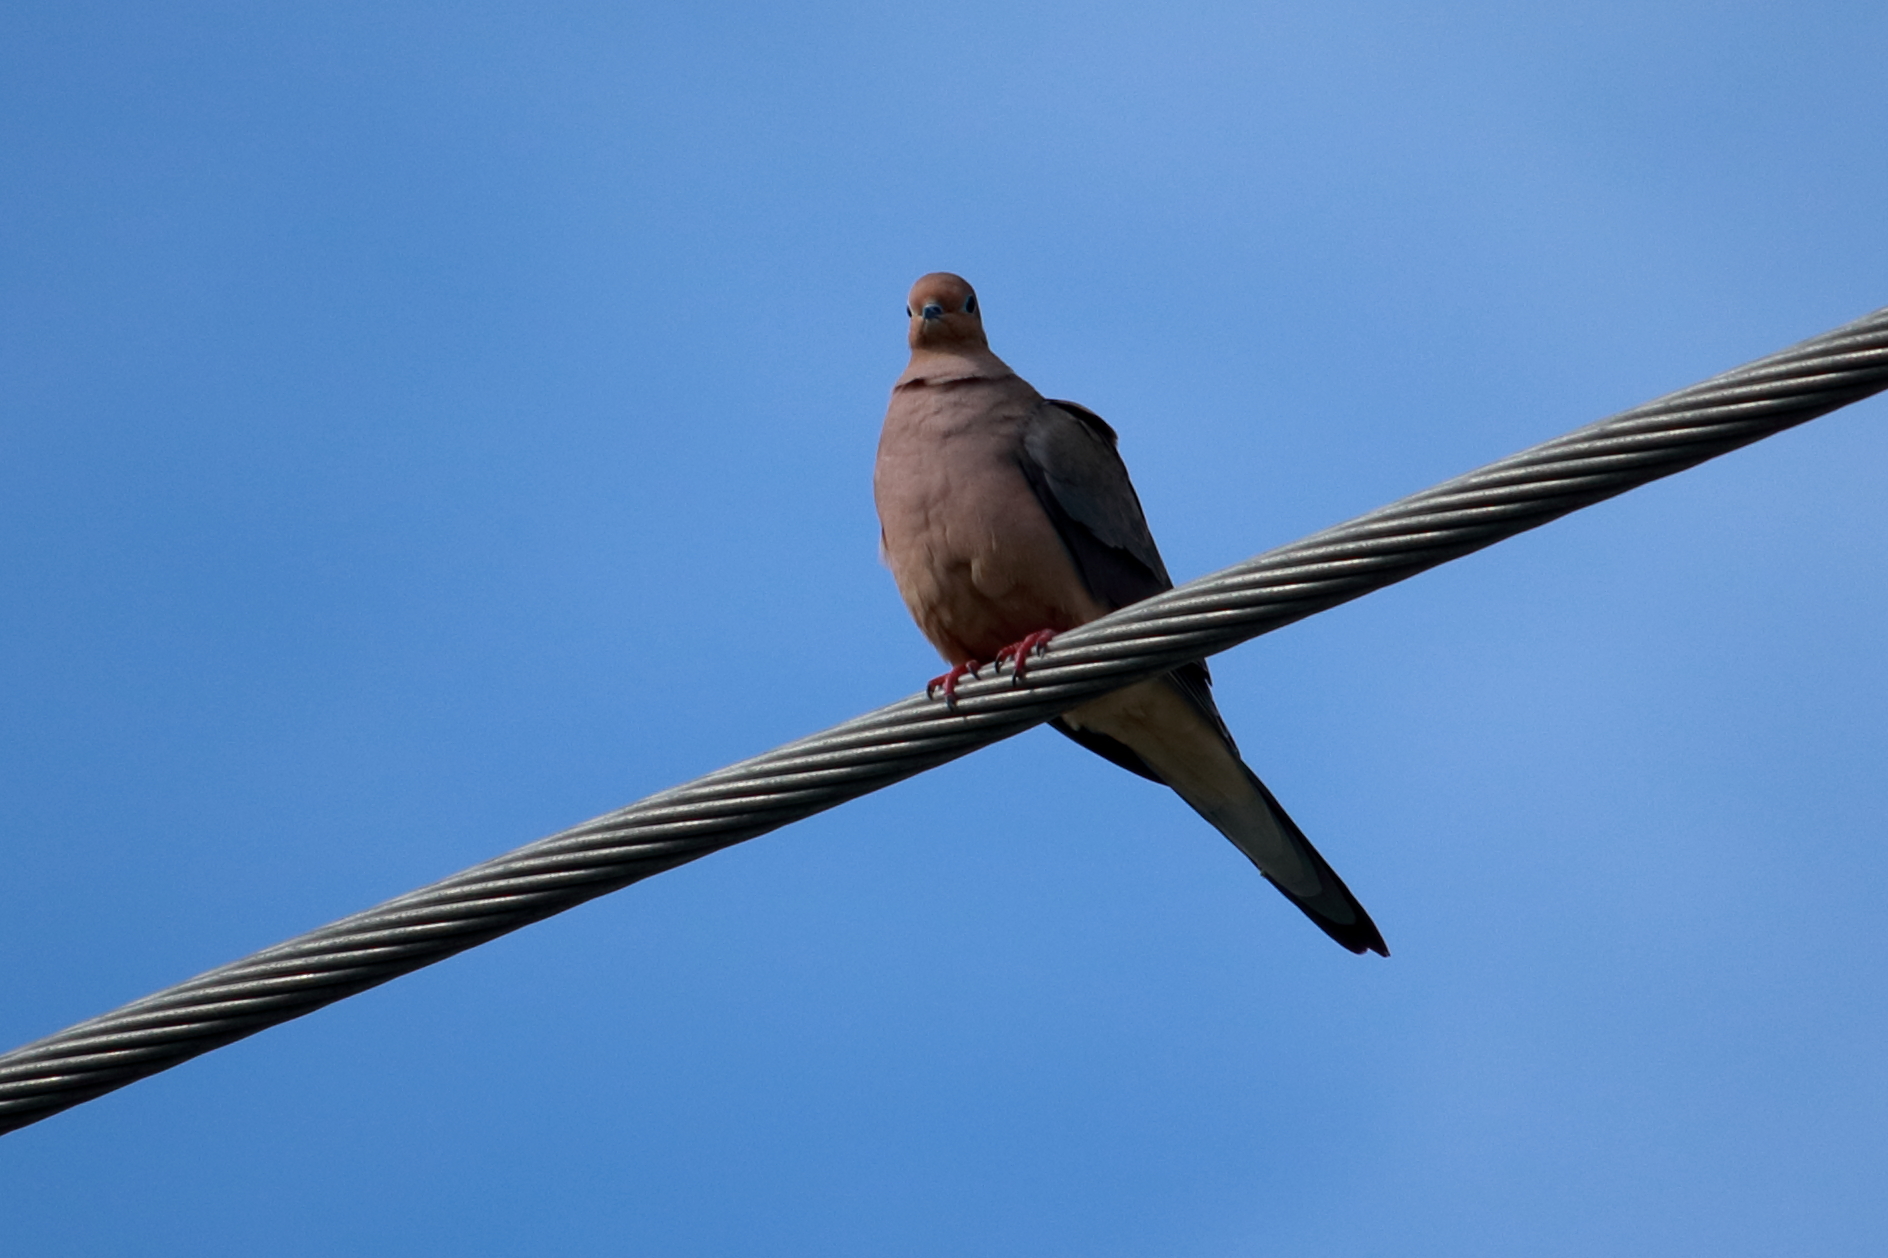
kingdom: Animalia
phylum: Chordata
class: Aves
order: Columbiformes
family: Columbidae
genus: Zenaida
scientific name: Zenaida macroura
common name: Mourning dove
